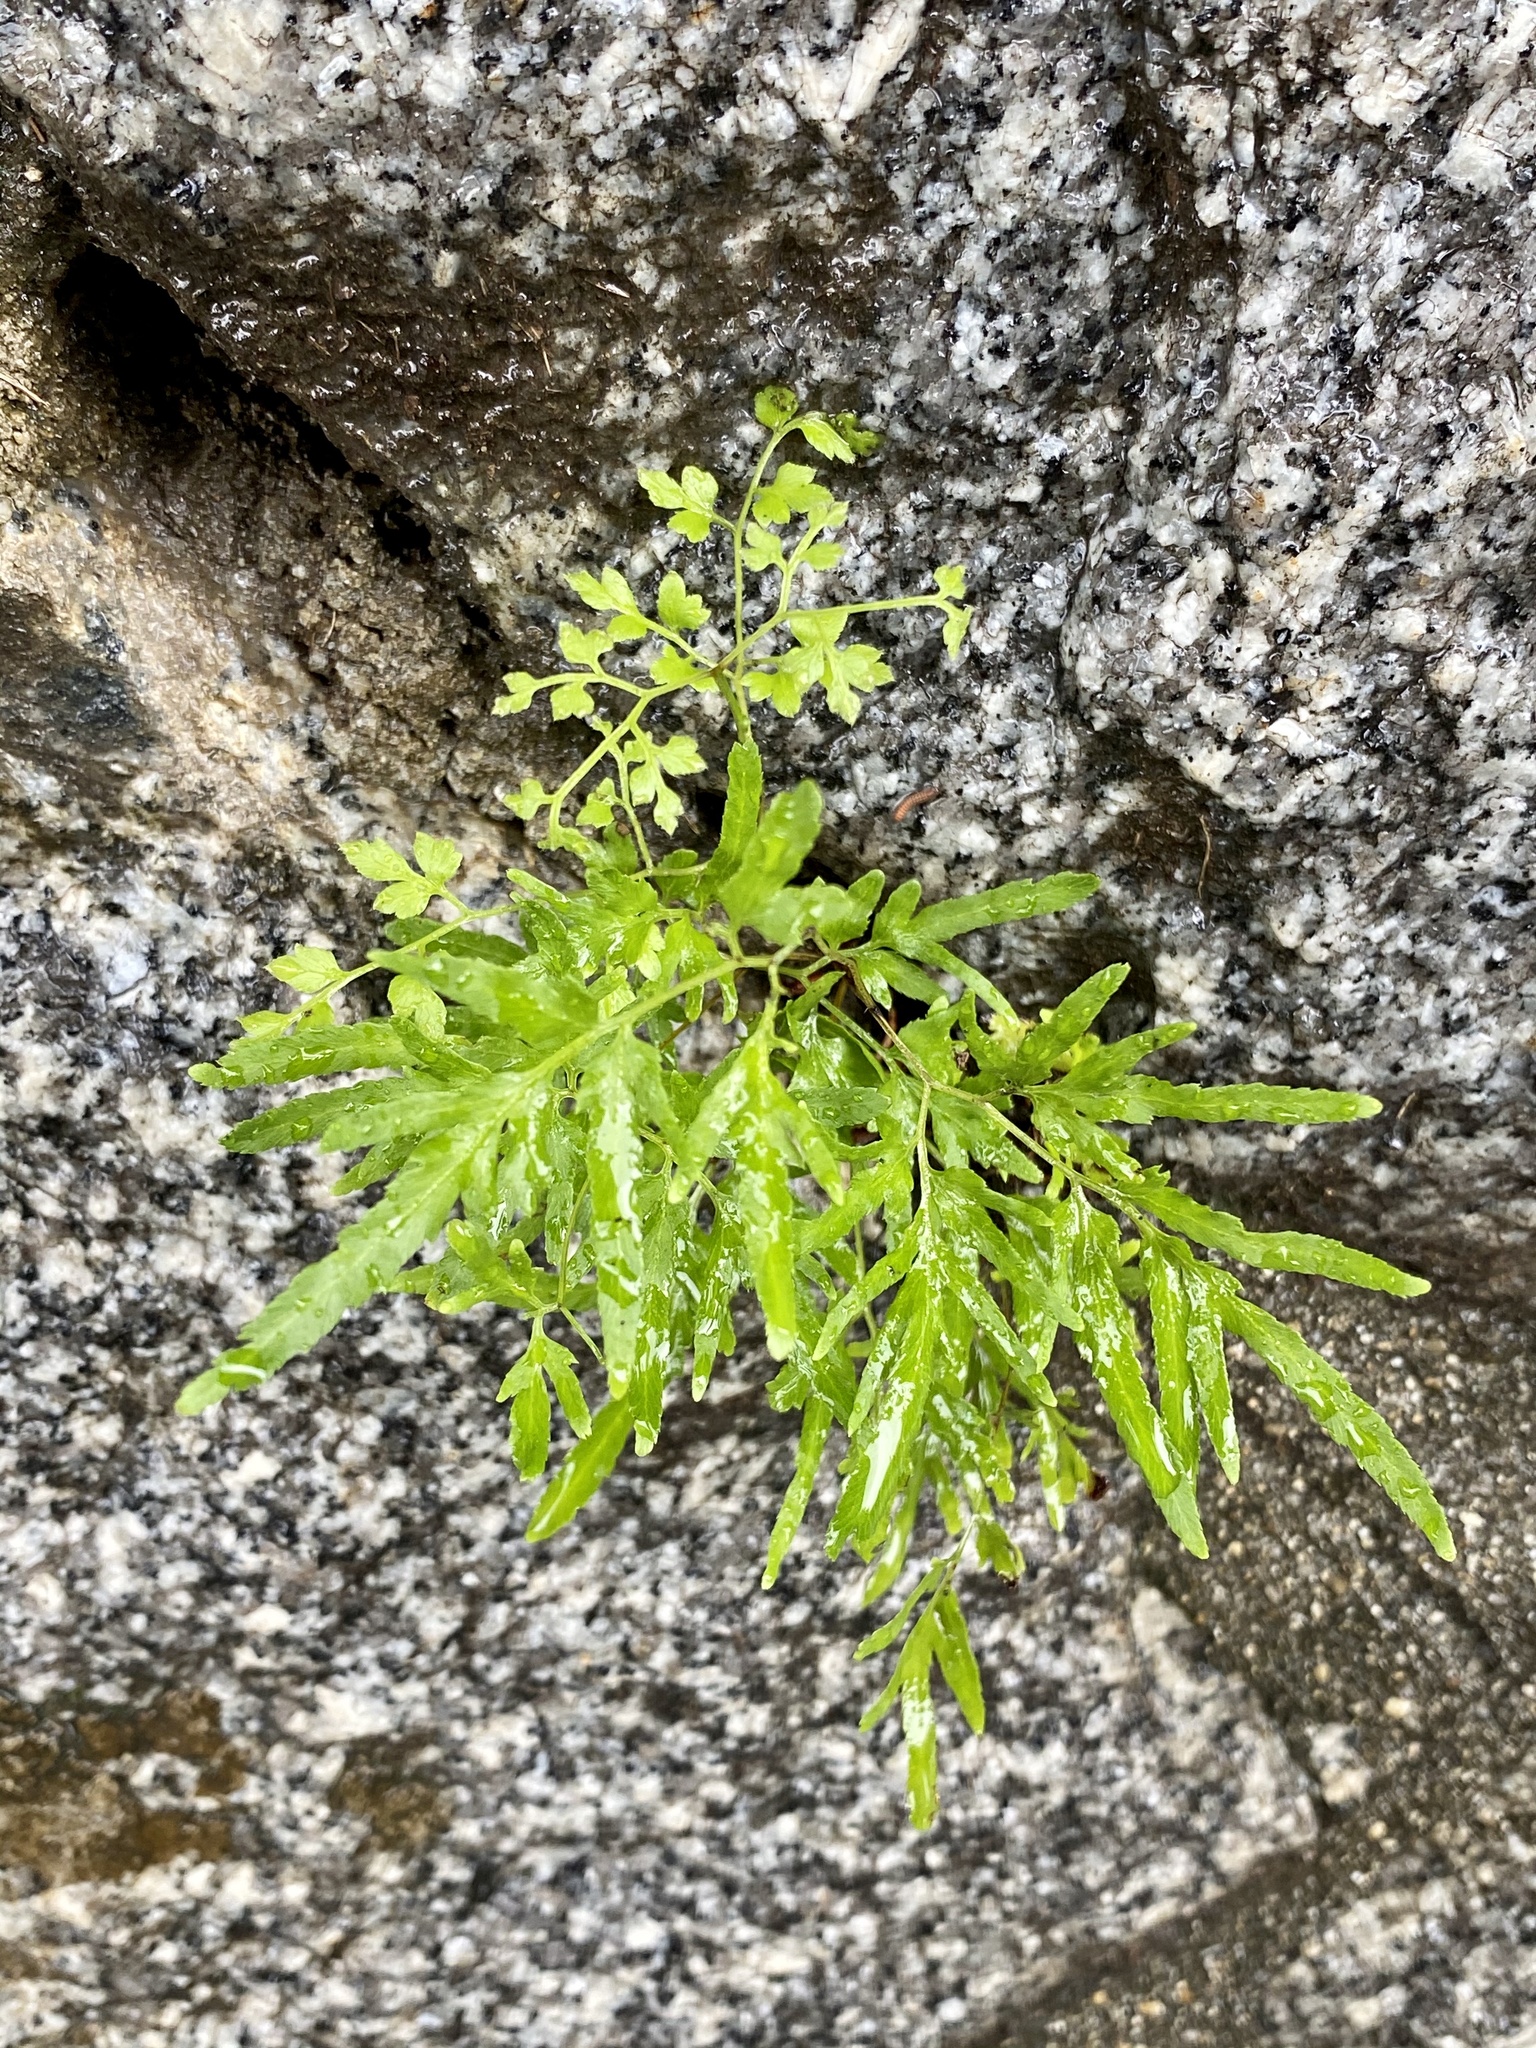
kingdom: Plantae
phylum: Tracheophyta
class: Polypodiopsida
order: Schizaeales
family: Lygodiaceae
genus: Lygodium
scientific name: Lygodium japonicum
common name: Japanese climbing fern
